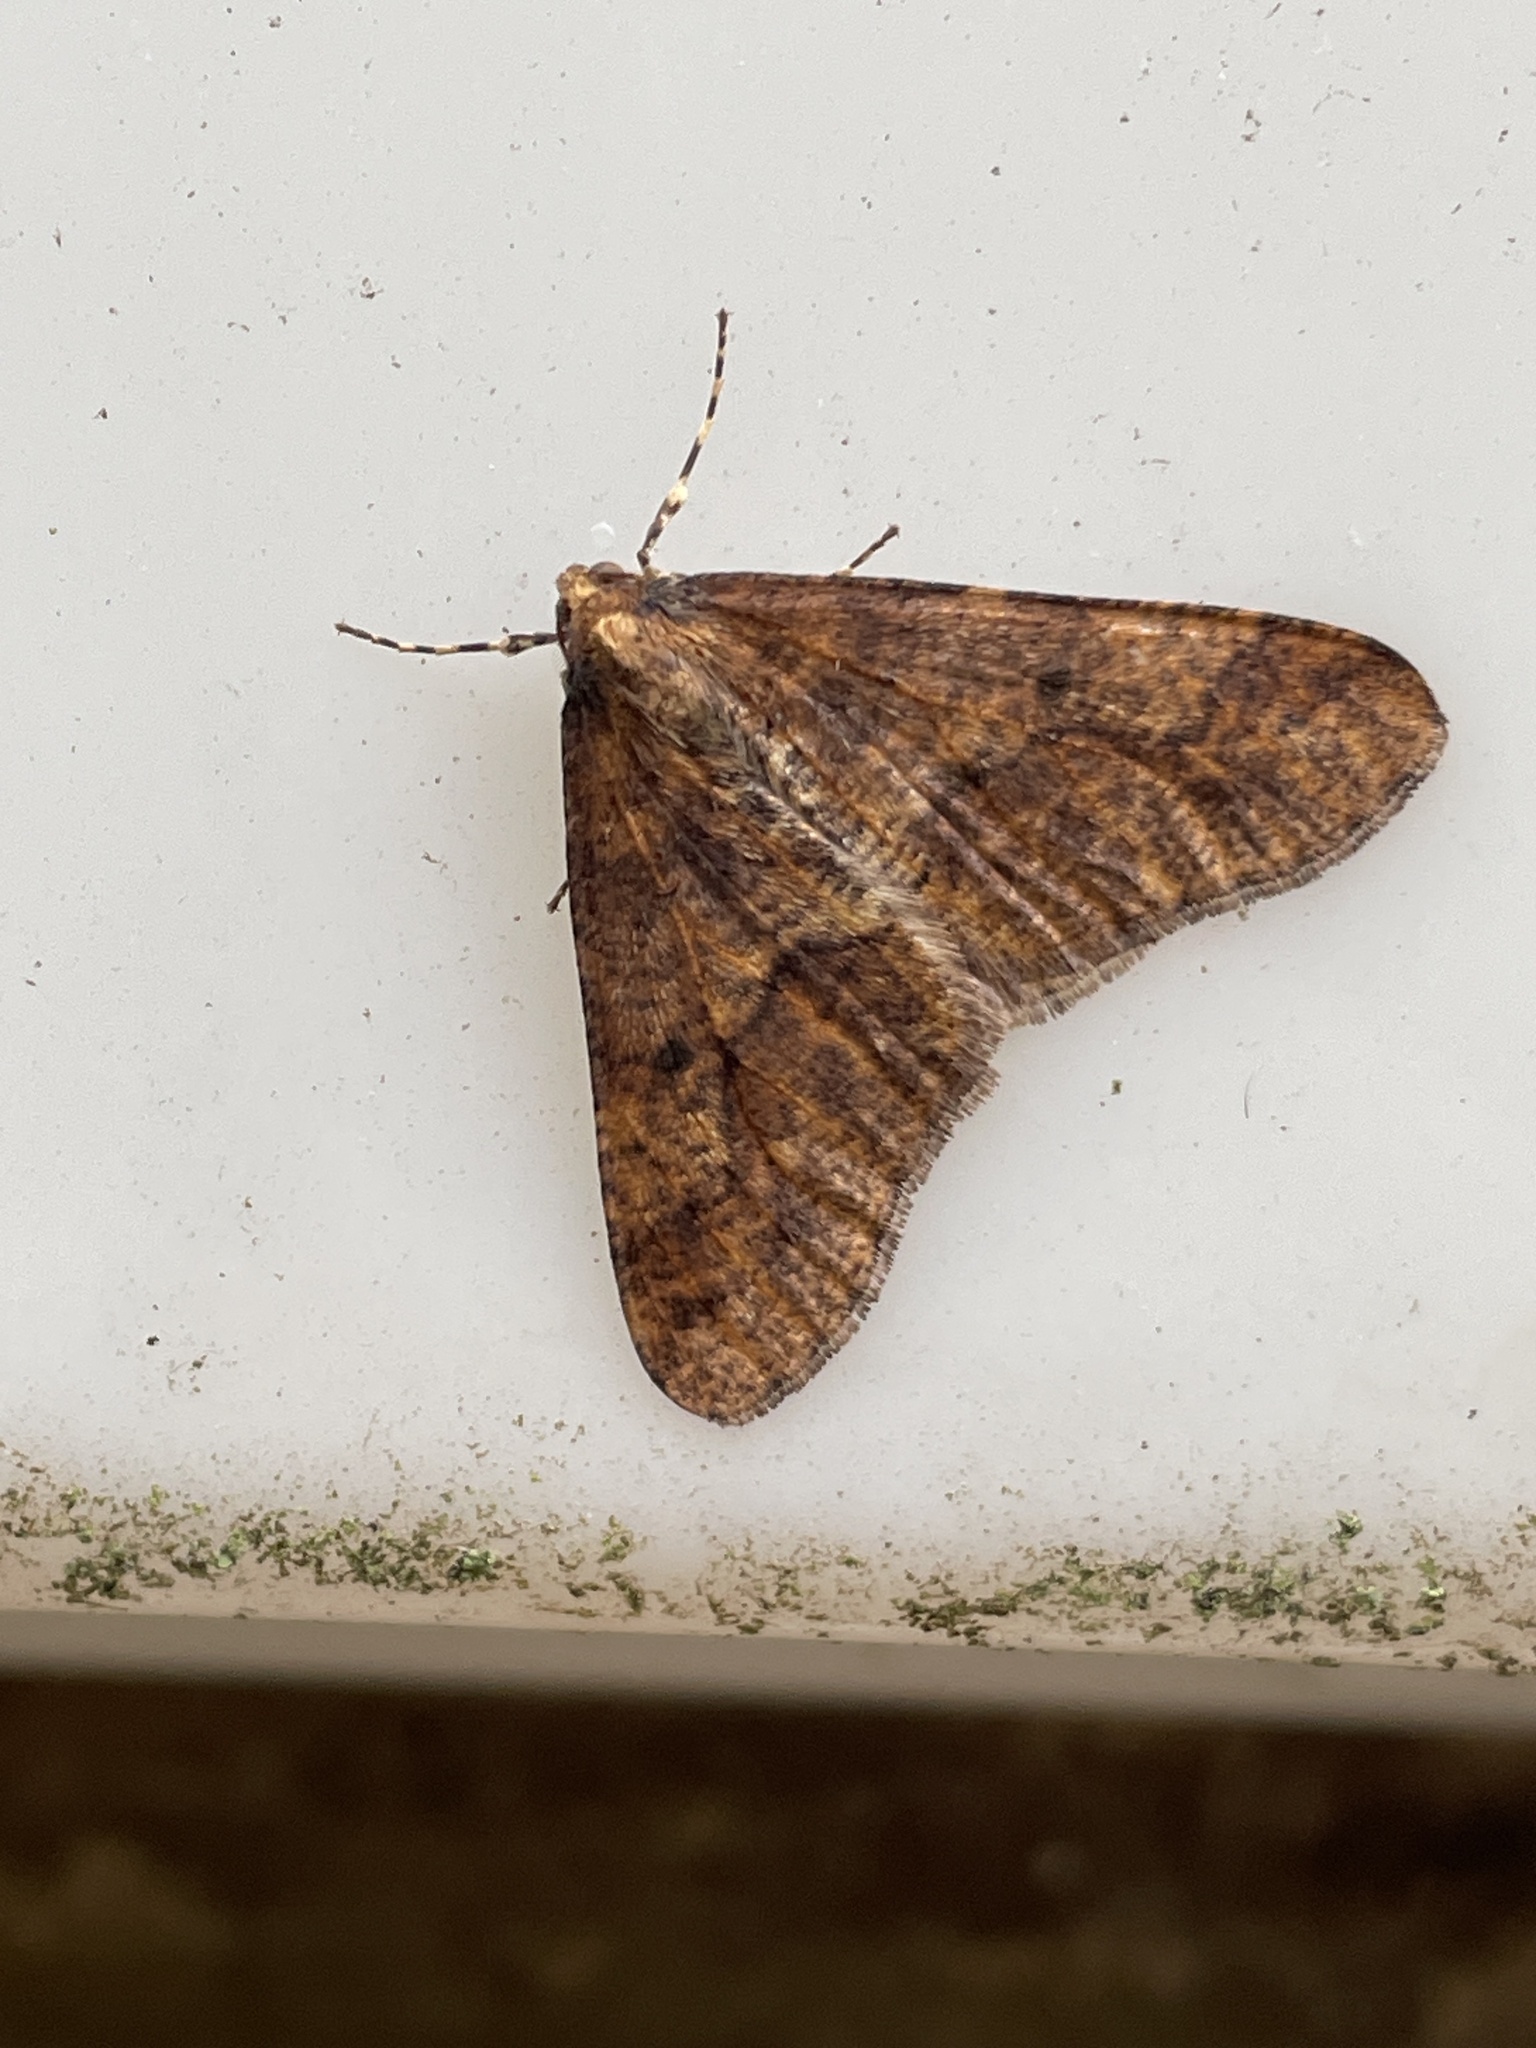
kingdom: Animalia
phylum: Arthropoda
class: Insecta
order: Lepidoptera
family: Geometridae
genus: Erannis
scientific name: Erannis defoliaria
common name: Mottled umber
